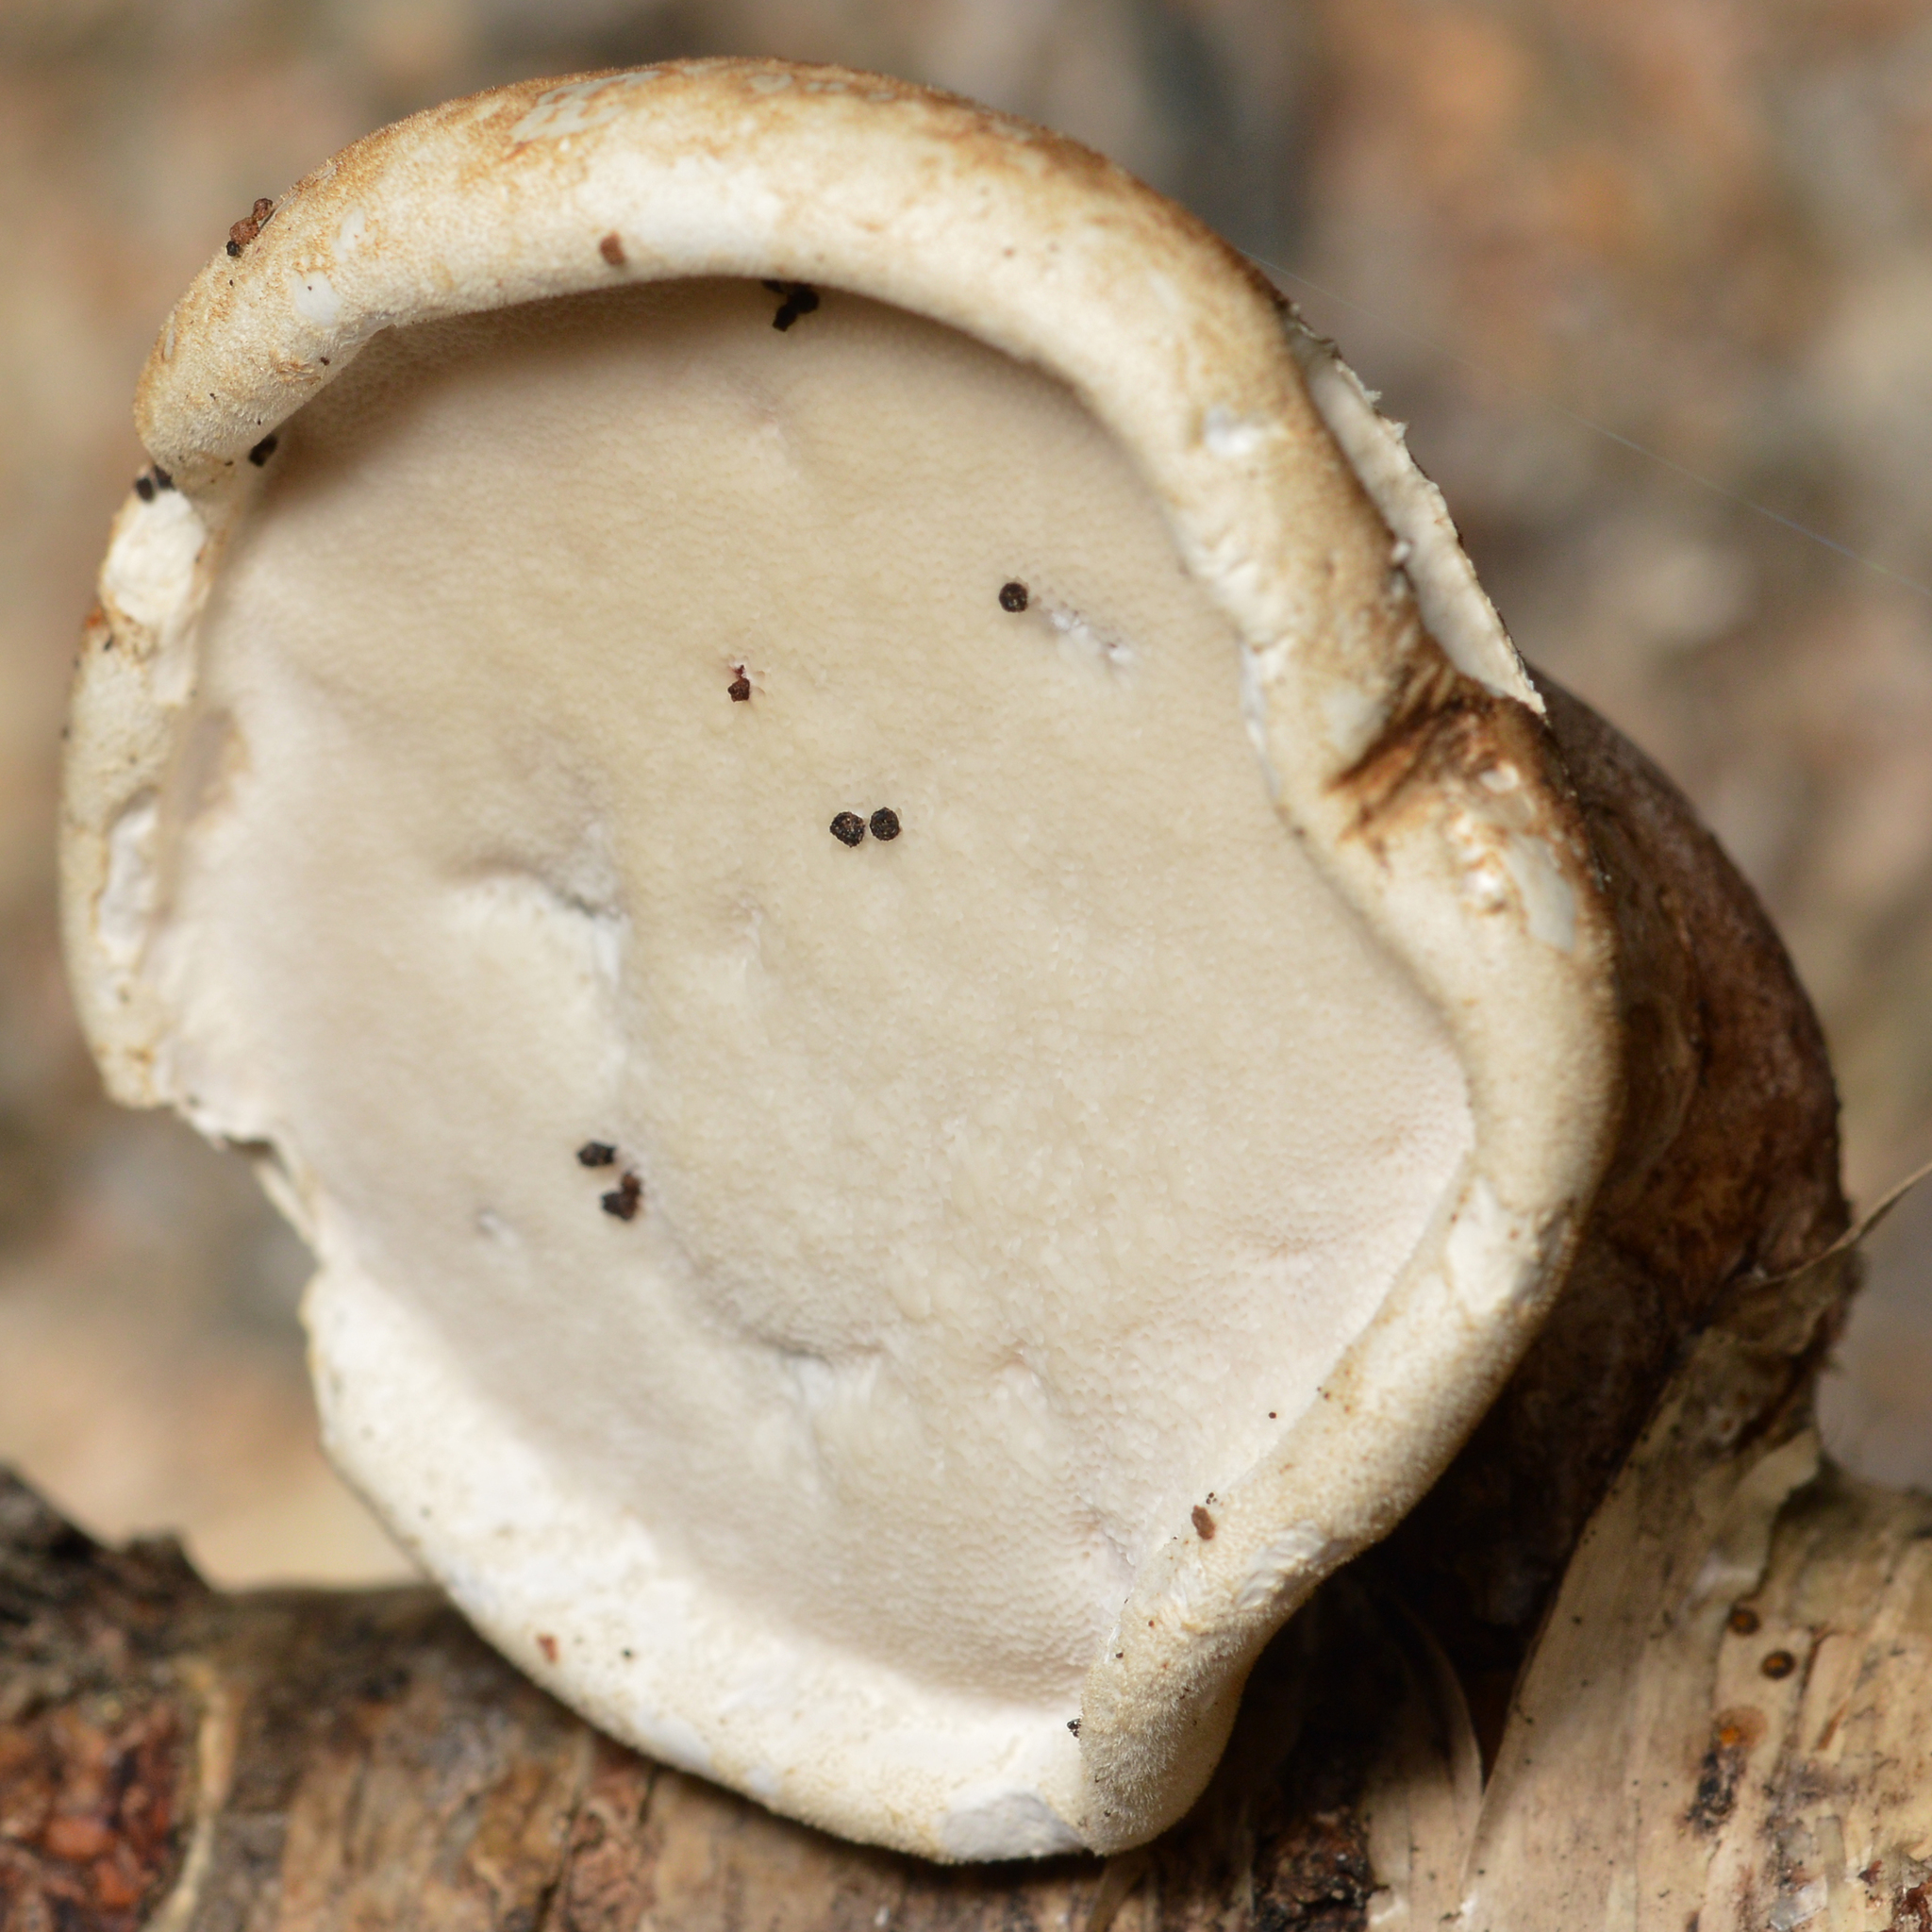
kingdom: Fungi
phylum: Basidiomycota
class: Agaricomycetes
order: Polyporales
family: Fomitopsidaceae
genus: Fomitopsis
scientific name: Fomitopsis betulina
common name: Birch polypore
